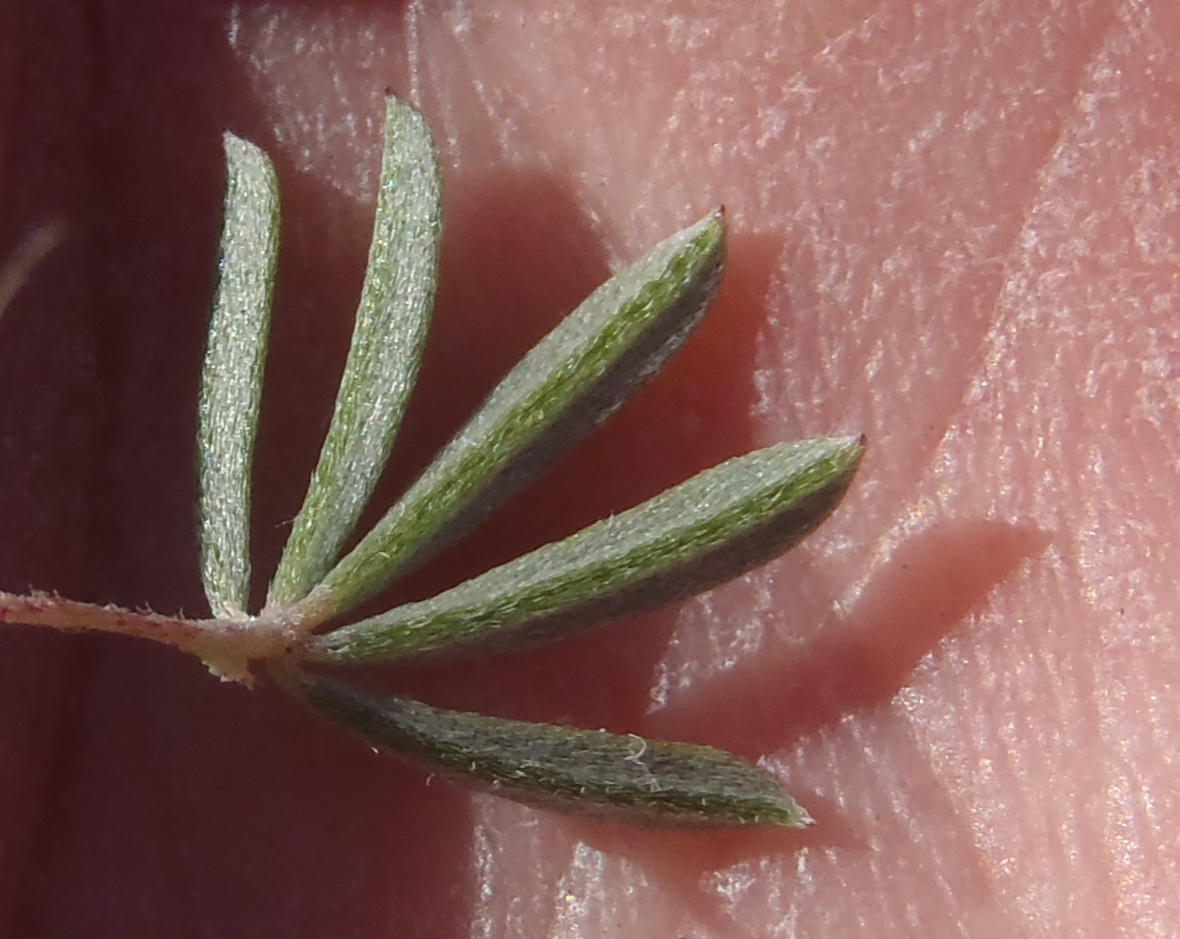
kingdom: Plantae
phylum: Tracheophyta
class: Magnoliopsida
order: Fabales
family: Fabaceae
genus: Indigofera
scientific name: Indigofera flabellata
